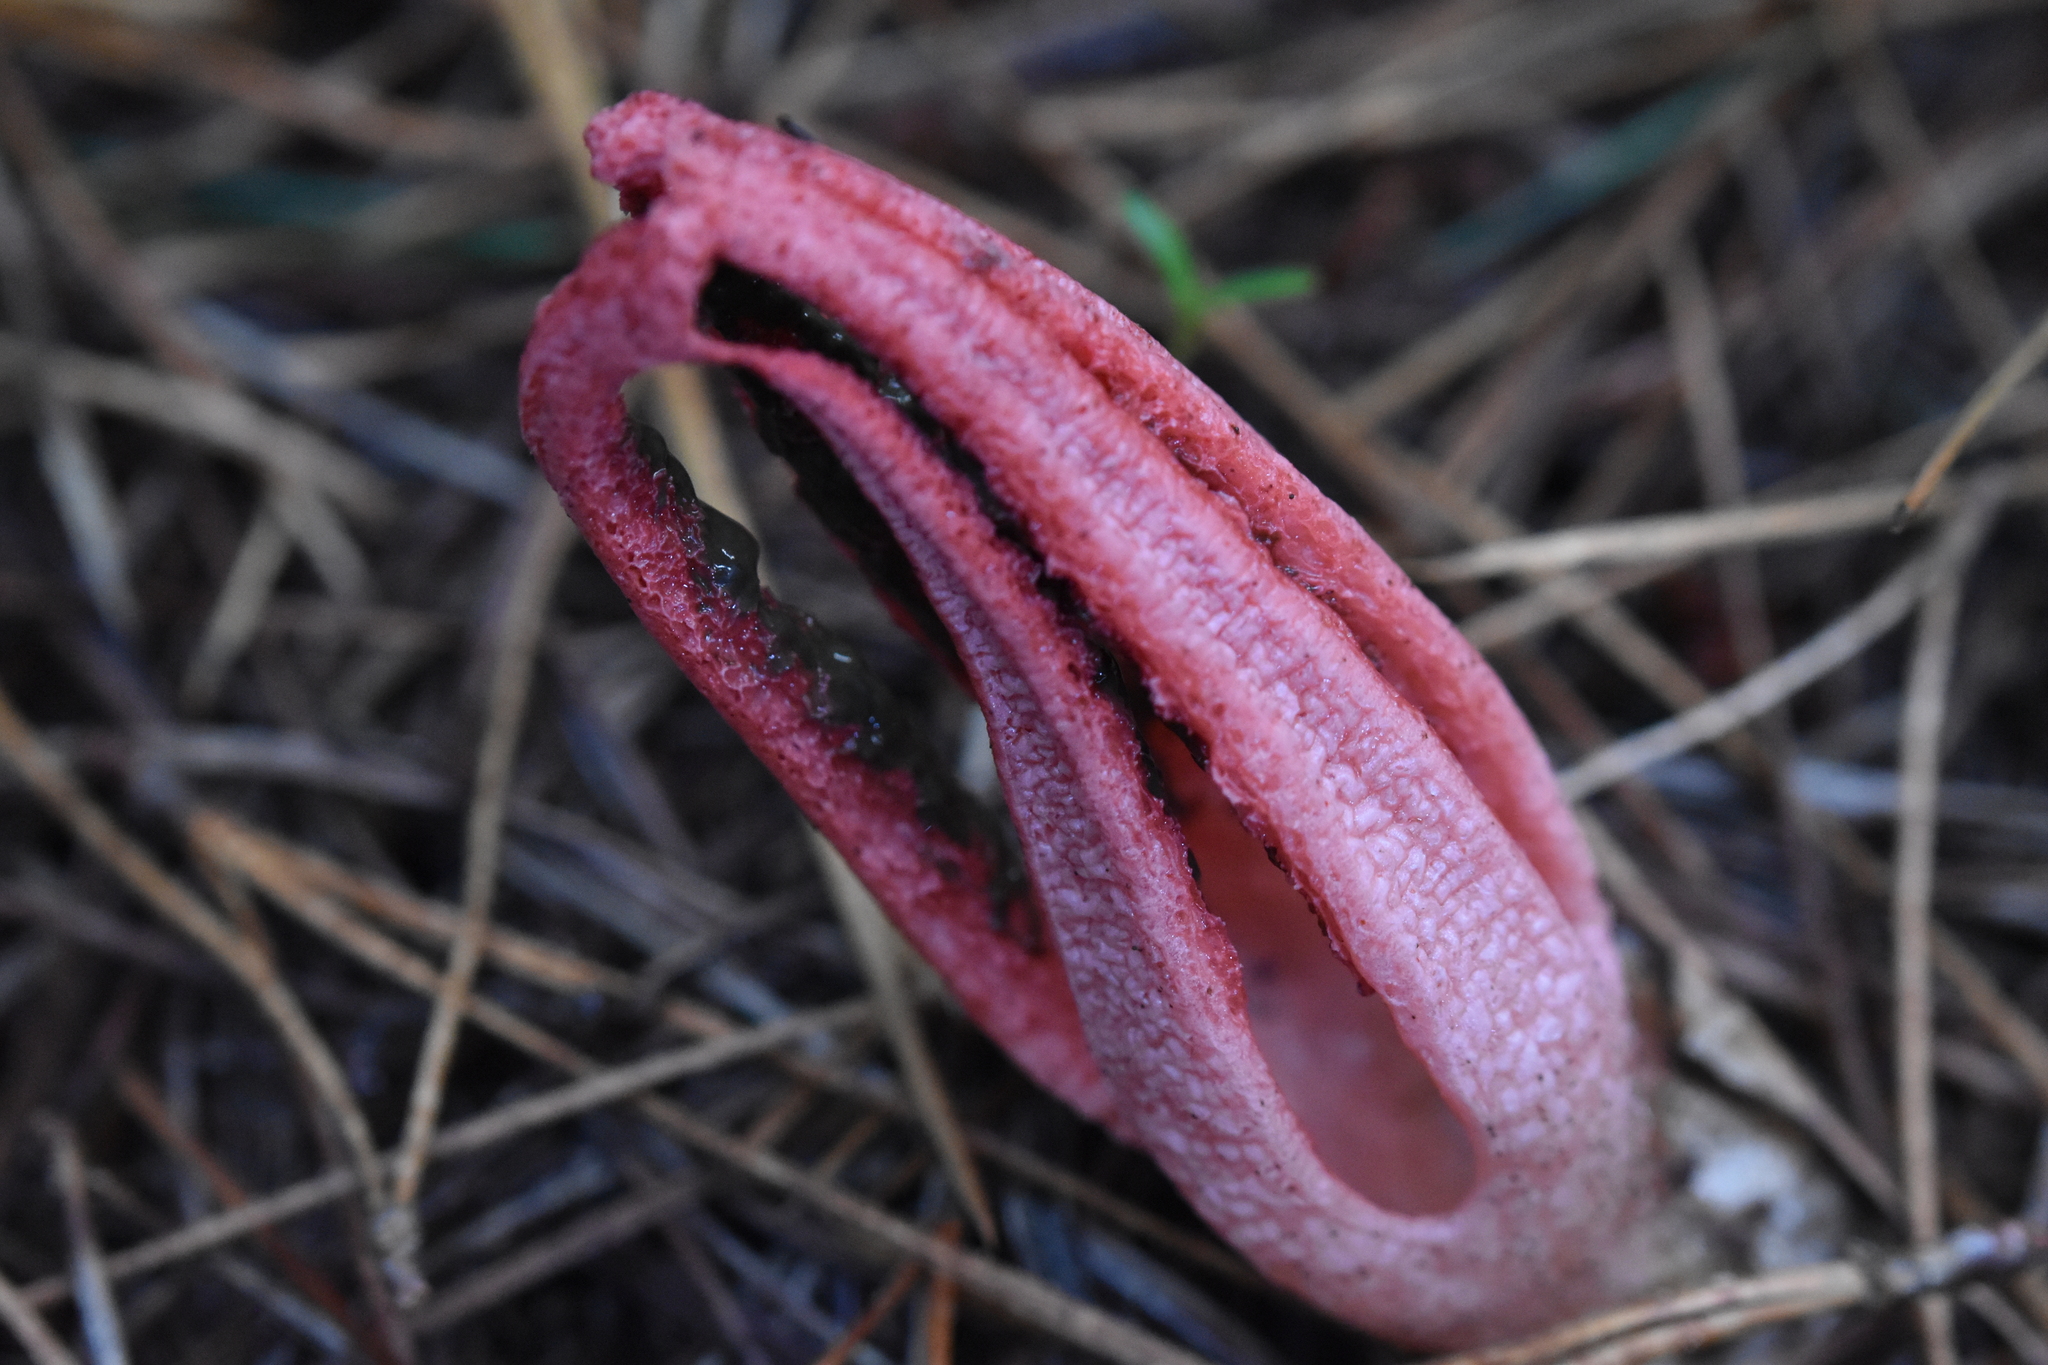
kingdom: Fungi
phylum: Basidiomycota
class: Agaricomycetes
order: Phallales
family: Phallaceae
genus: Clathrus
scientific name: Clathrus archeri
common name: Devil's fingers
